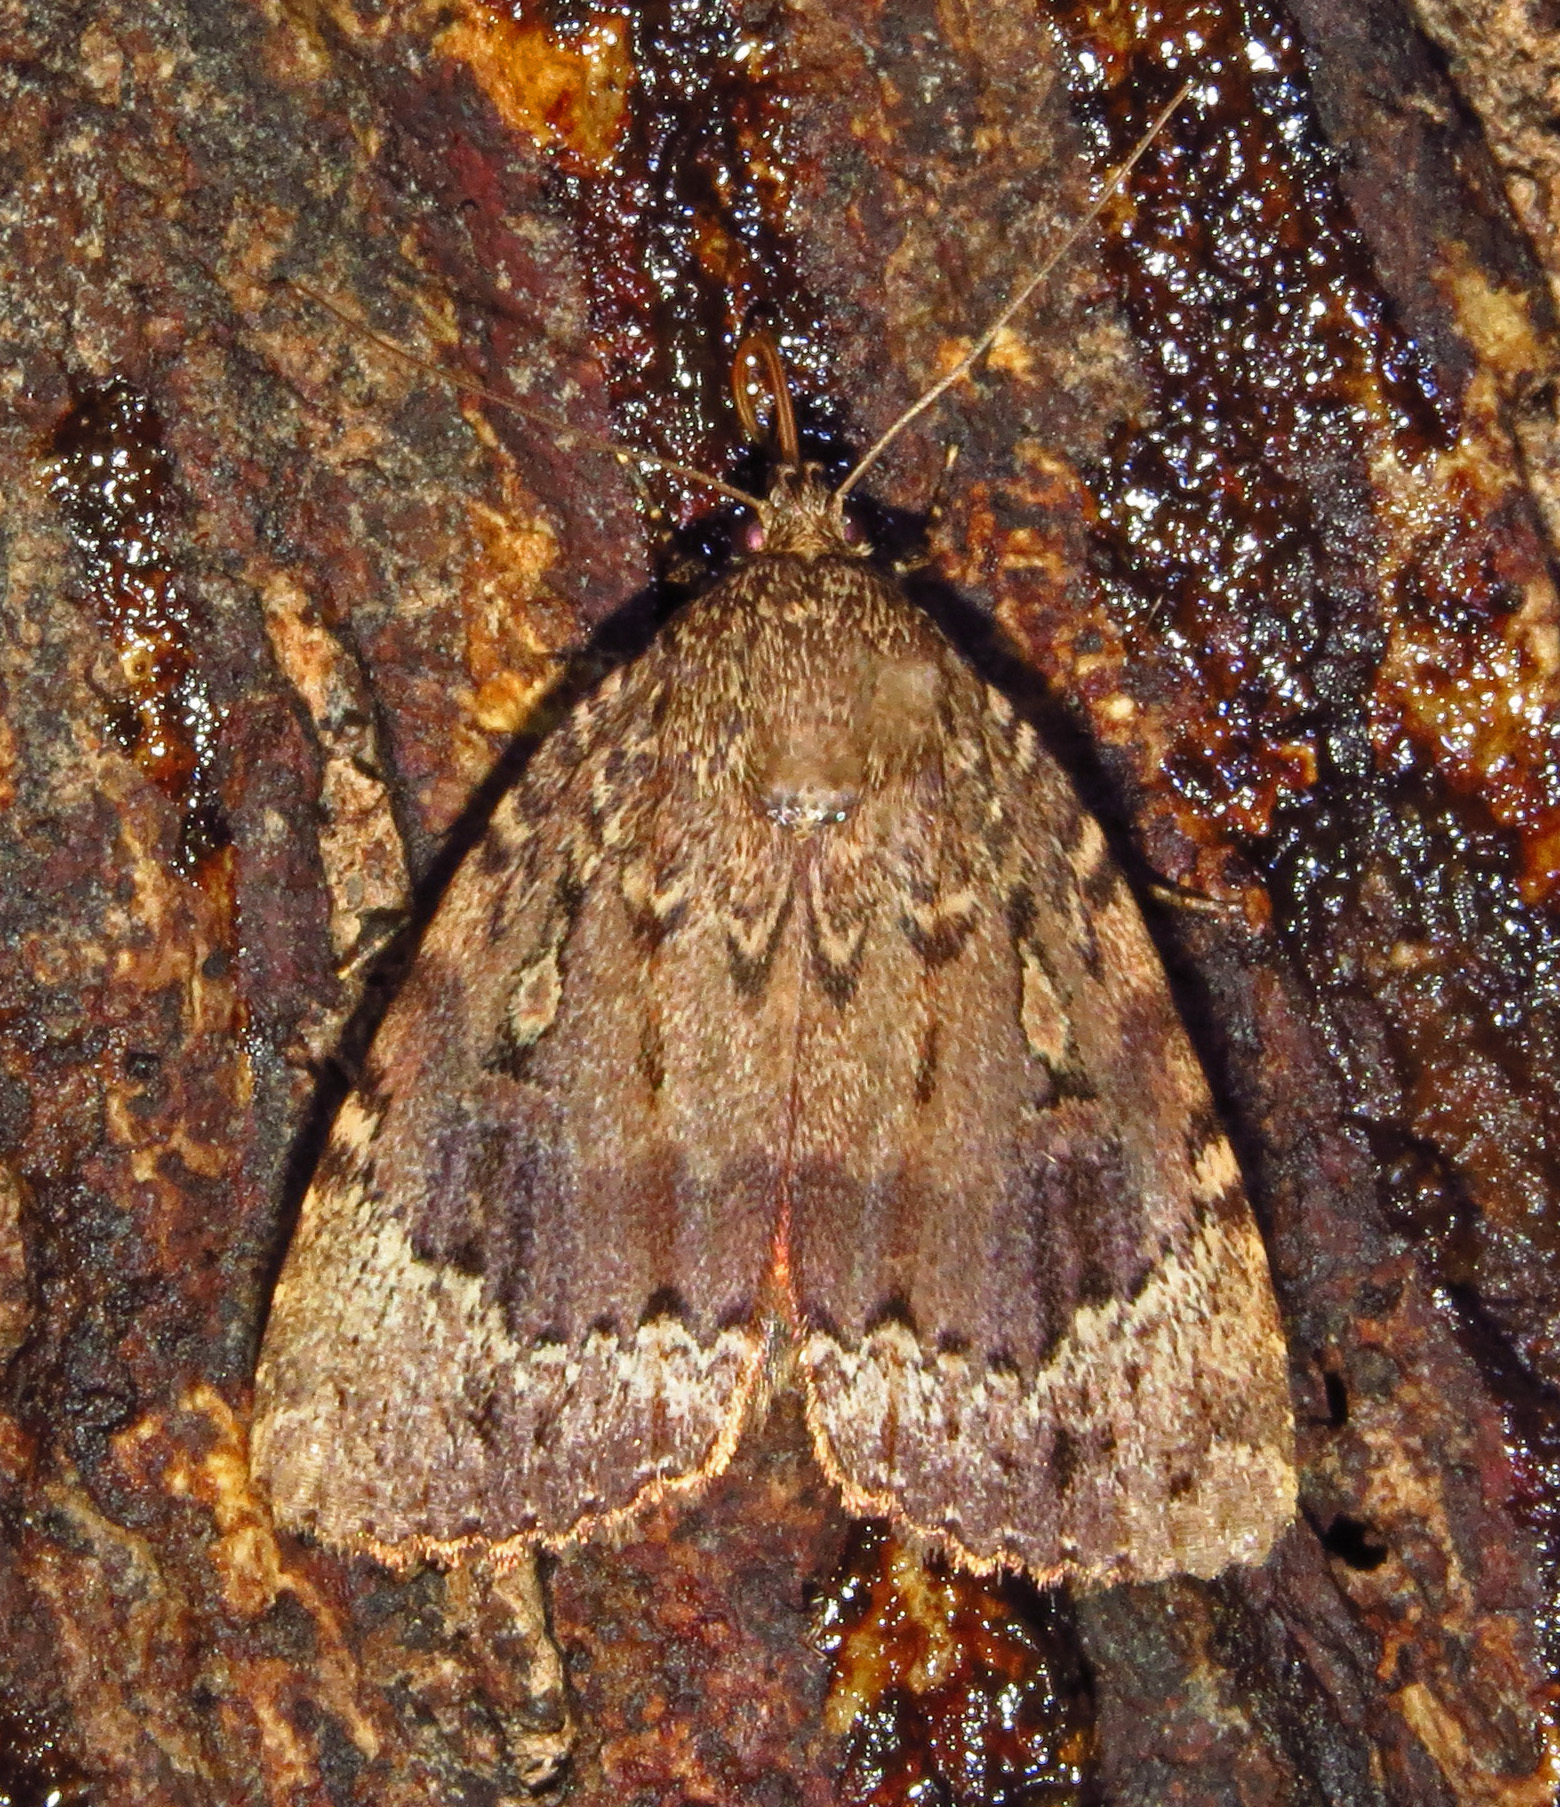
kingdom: Animalia
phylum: Arthropoda
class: Insecta
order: Lepidoptera
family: Noctuidae
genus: Amphipyra
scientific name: Amphipyra pyramidoides
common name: American copper underwing
